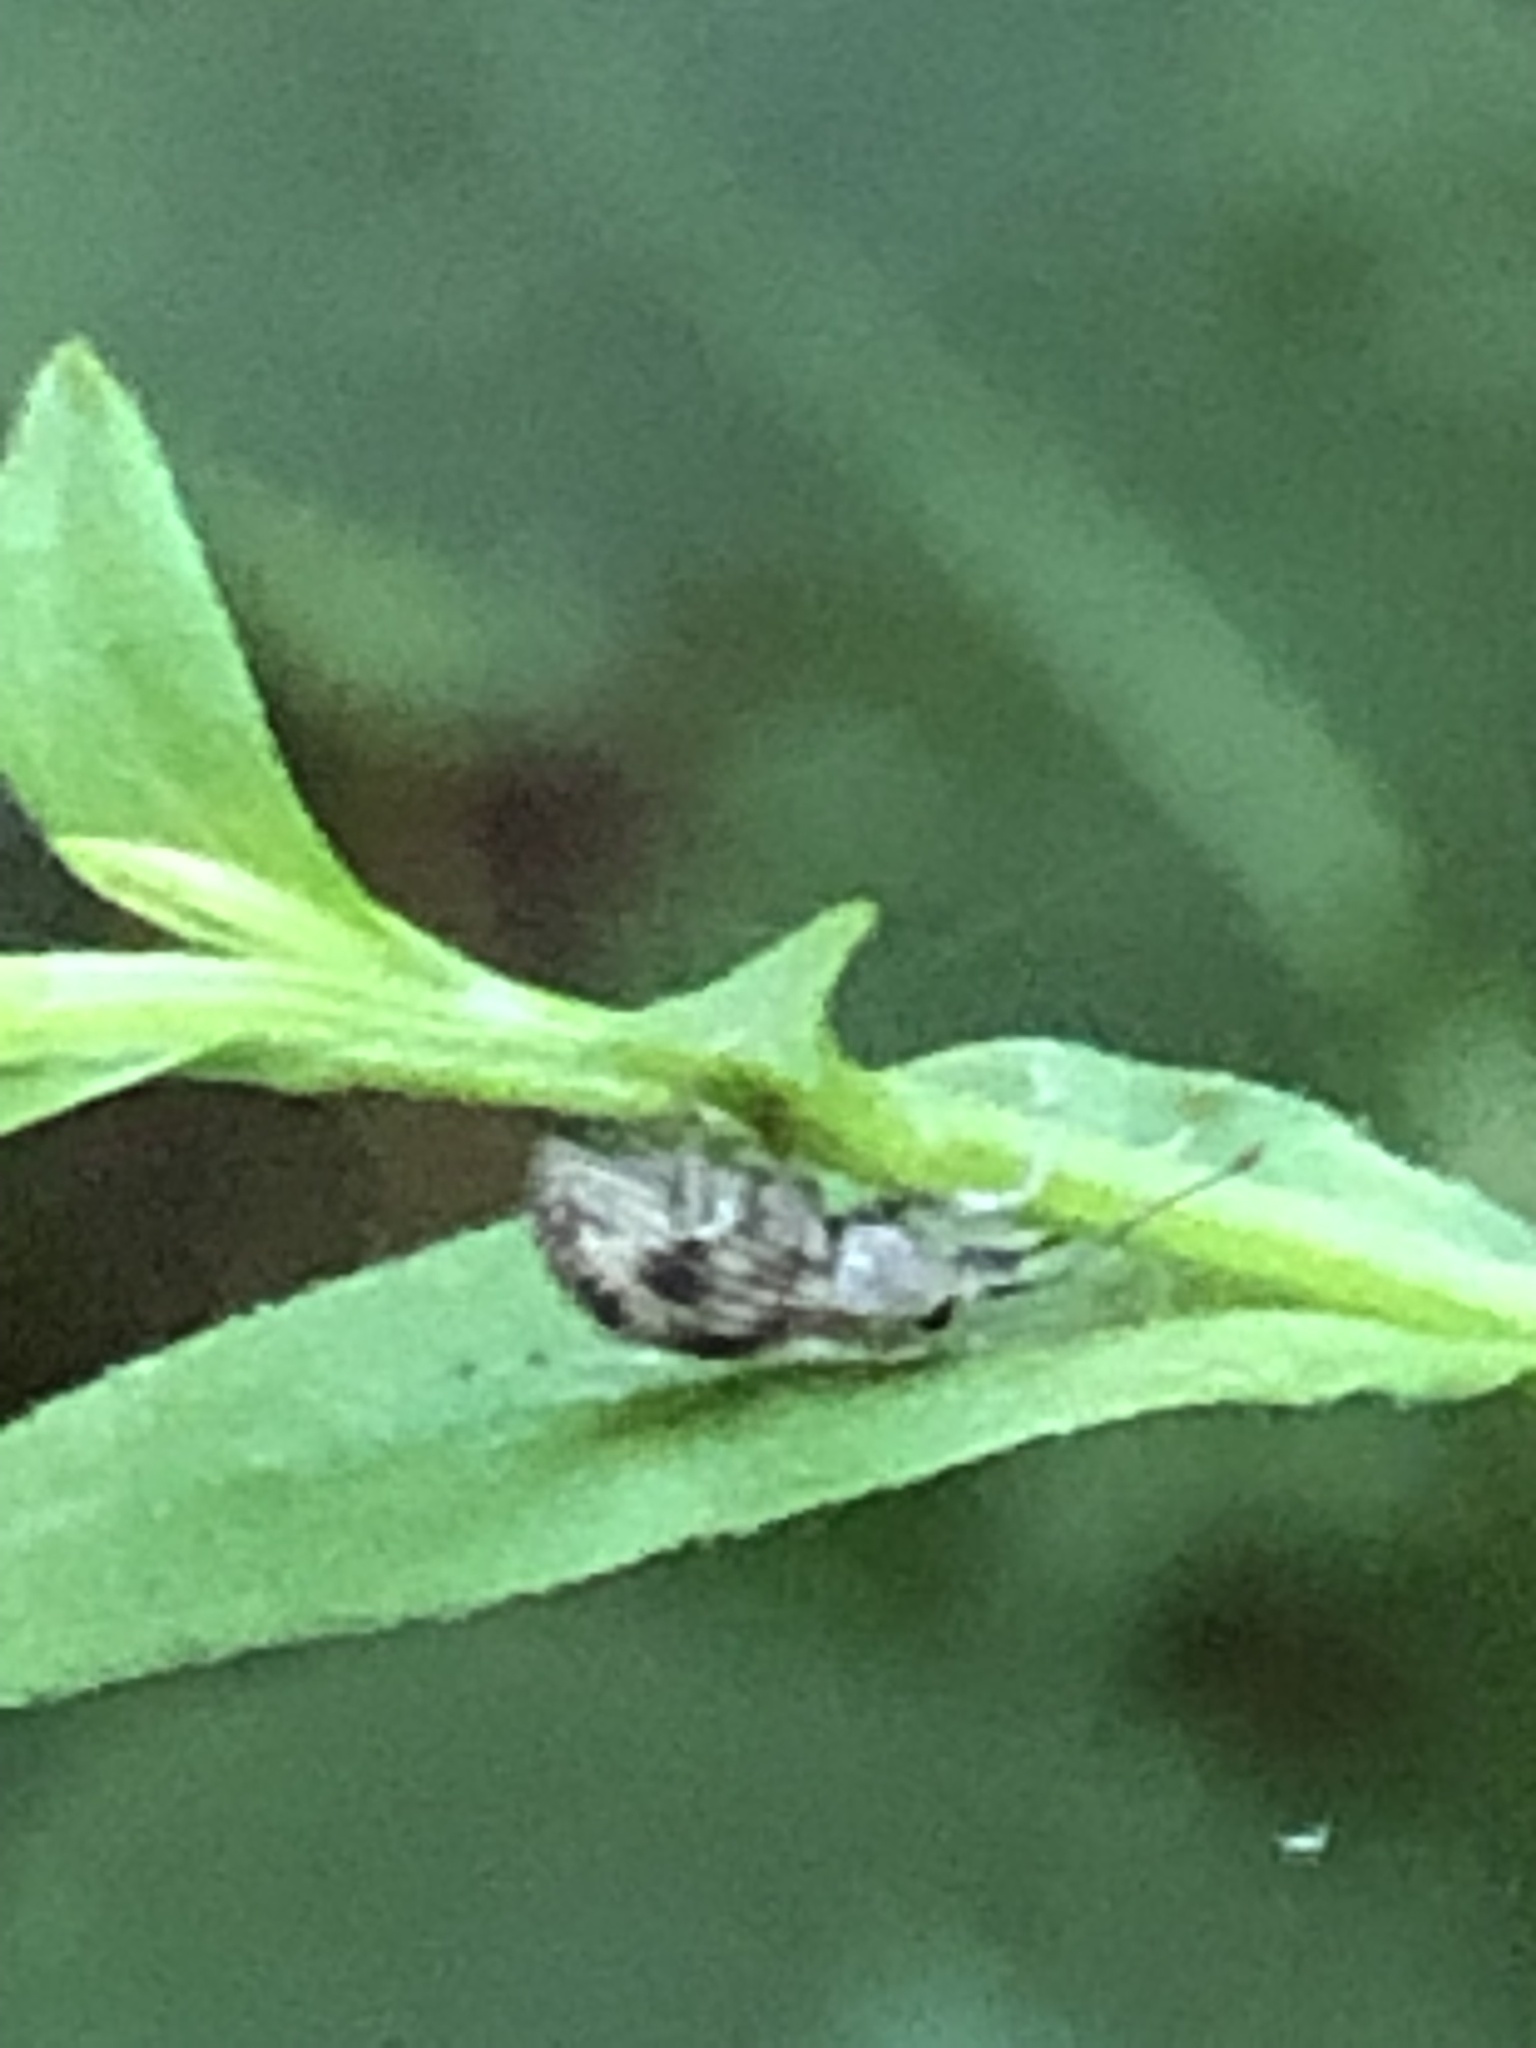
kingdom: Animalia
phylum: Arthropoda
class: Insecta
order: Coleoptera
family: Curculionidae
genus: Calomycterus
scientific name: Calomycterus setarius
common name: Weevil
